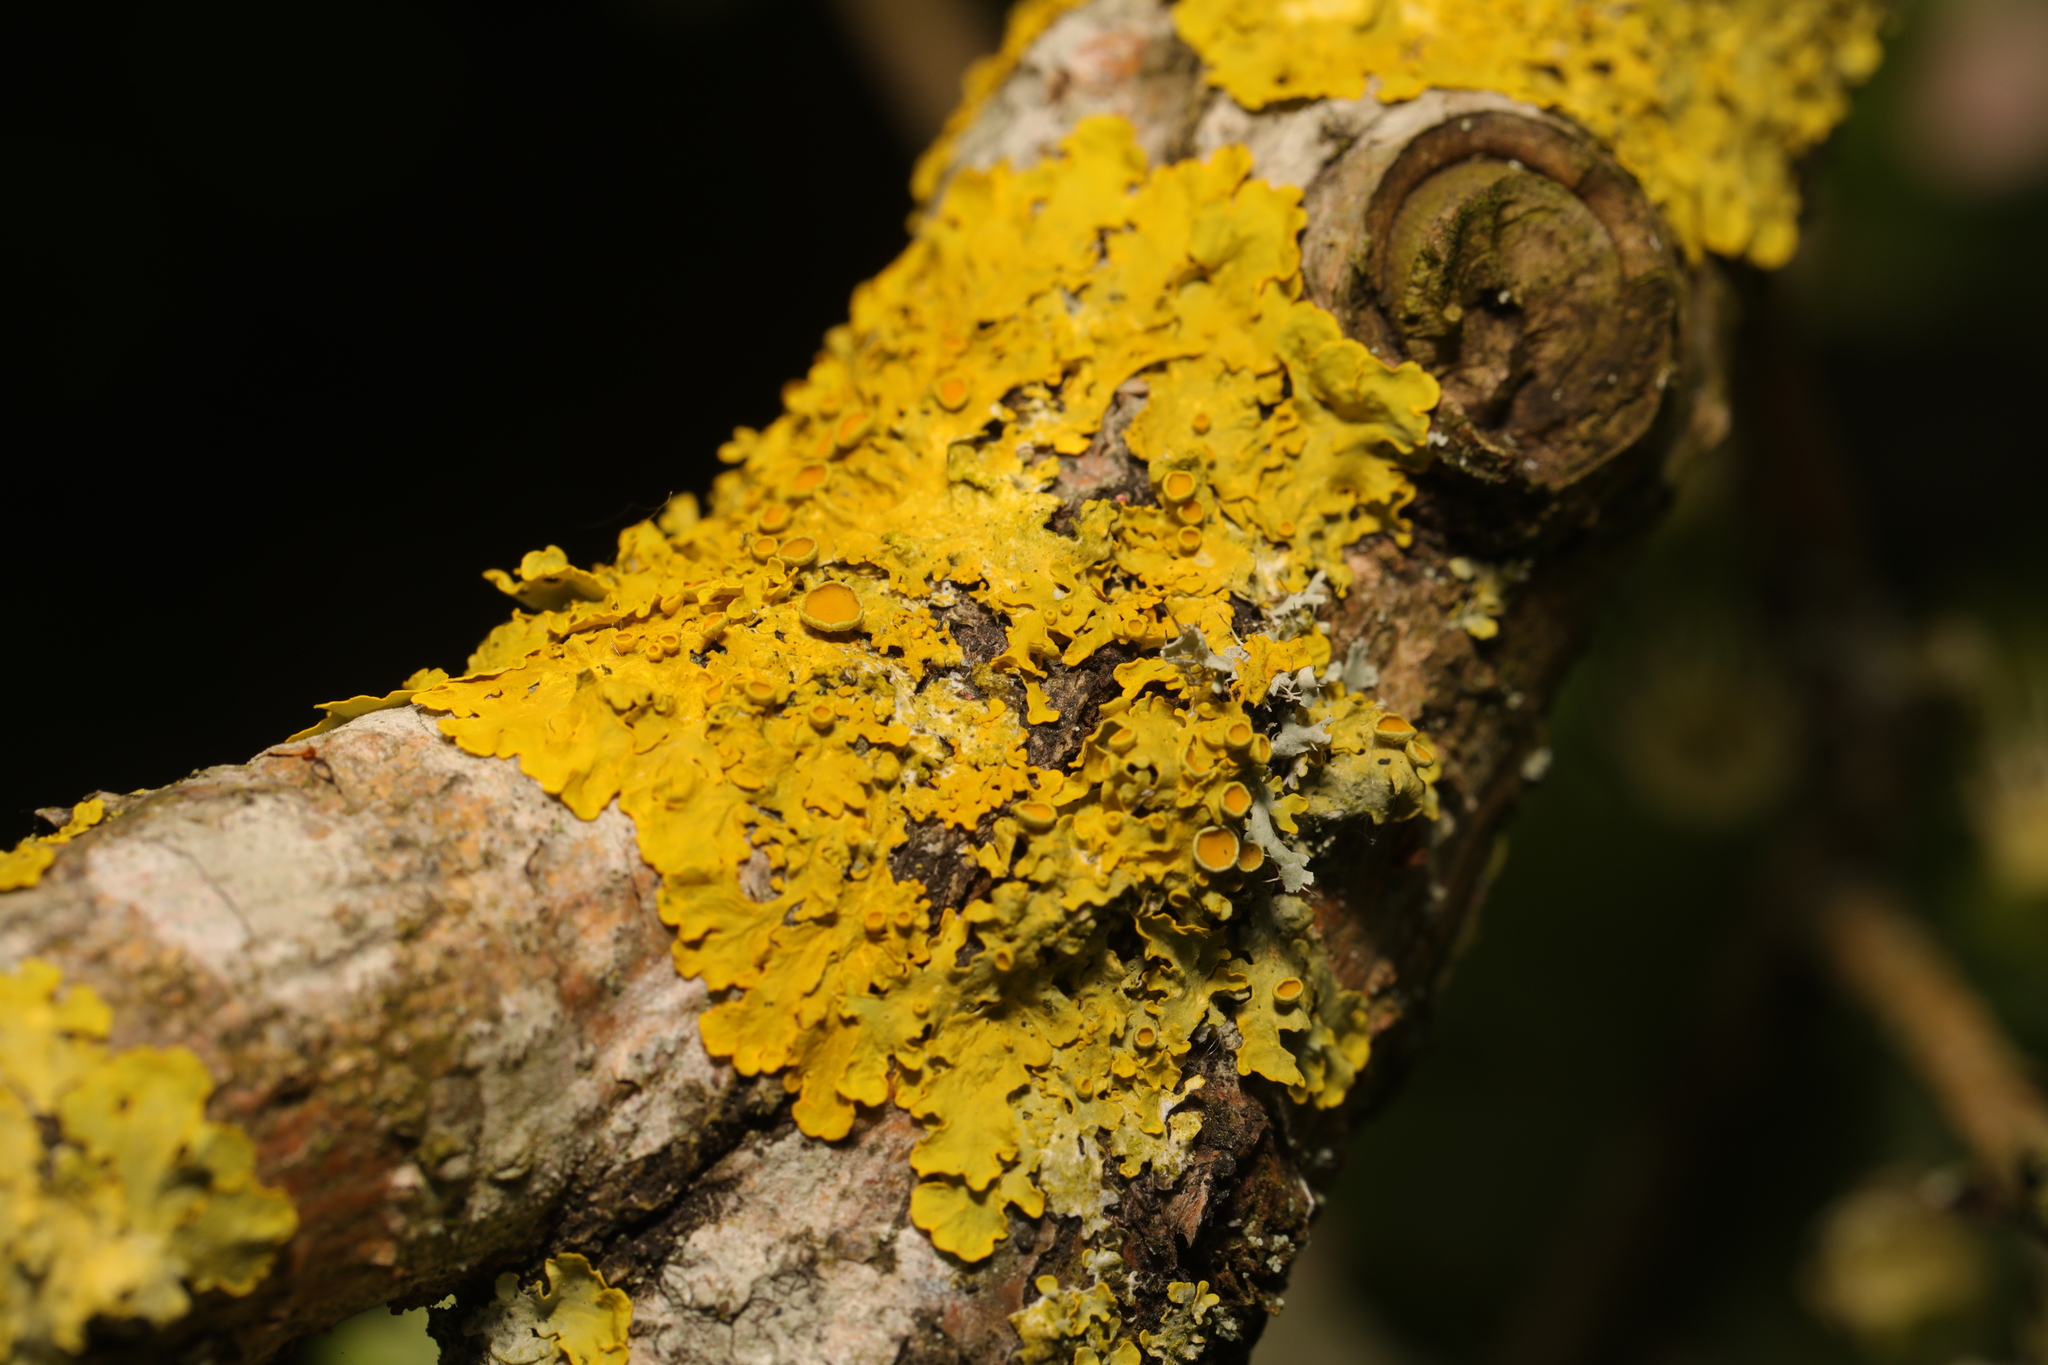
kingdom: Fungi
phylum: Ascomycota
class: Lecanoromycetes
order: Teloschistales
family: Teloschistaceae
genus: Xanthoria
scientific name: Xanthoria parietina
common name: Common orange lichen
